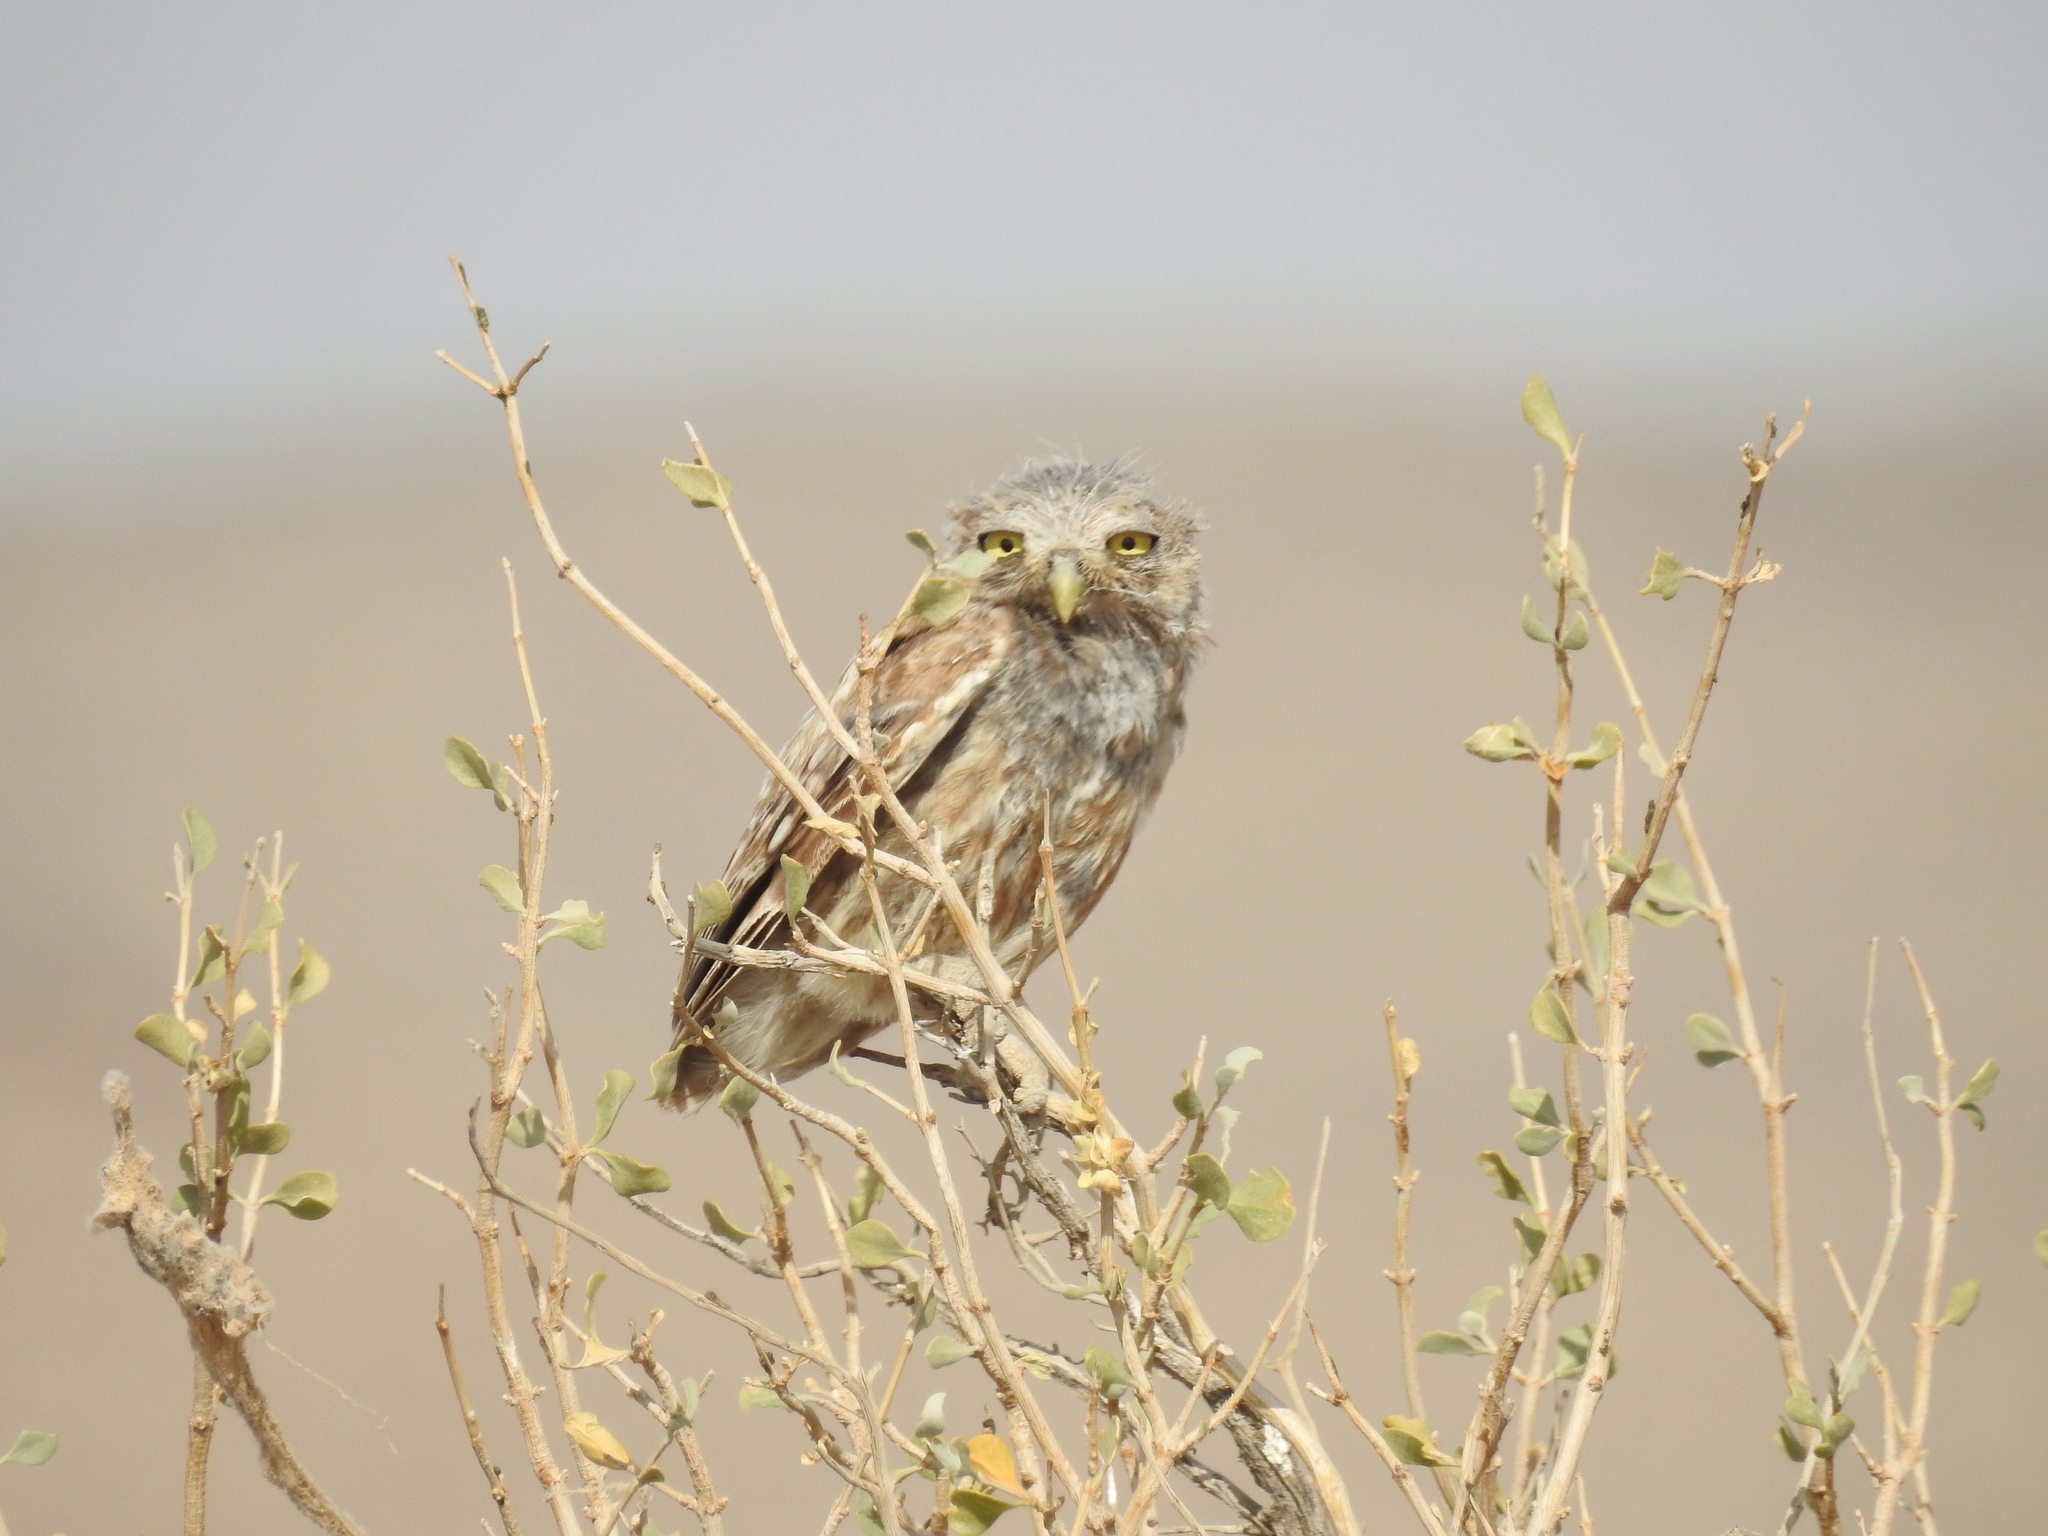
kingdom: Animalia
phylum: Chordata
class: Aves
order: Strigiformes
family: Strigidae
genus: Athene
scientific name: Athene noctua
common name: Little owl
